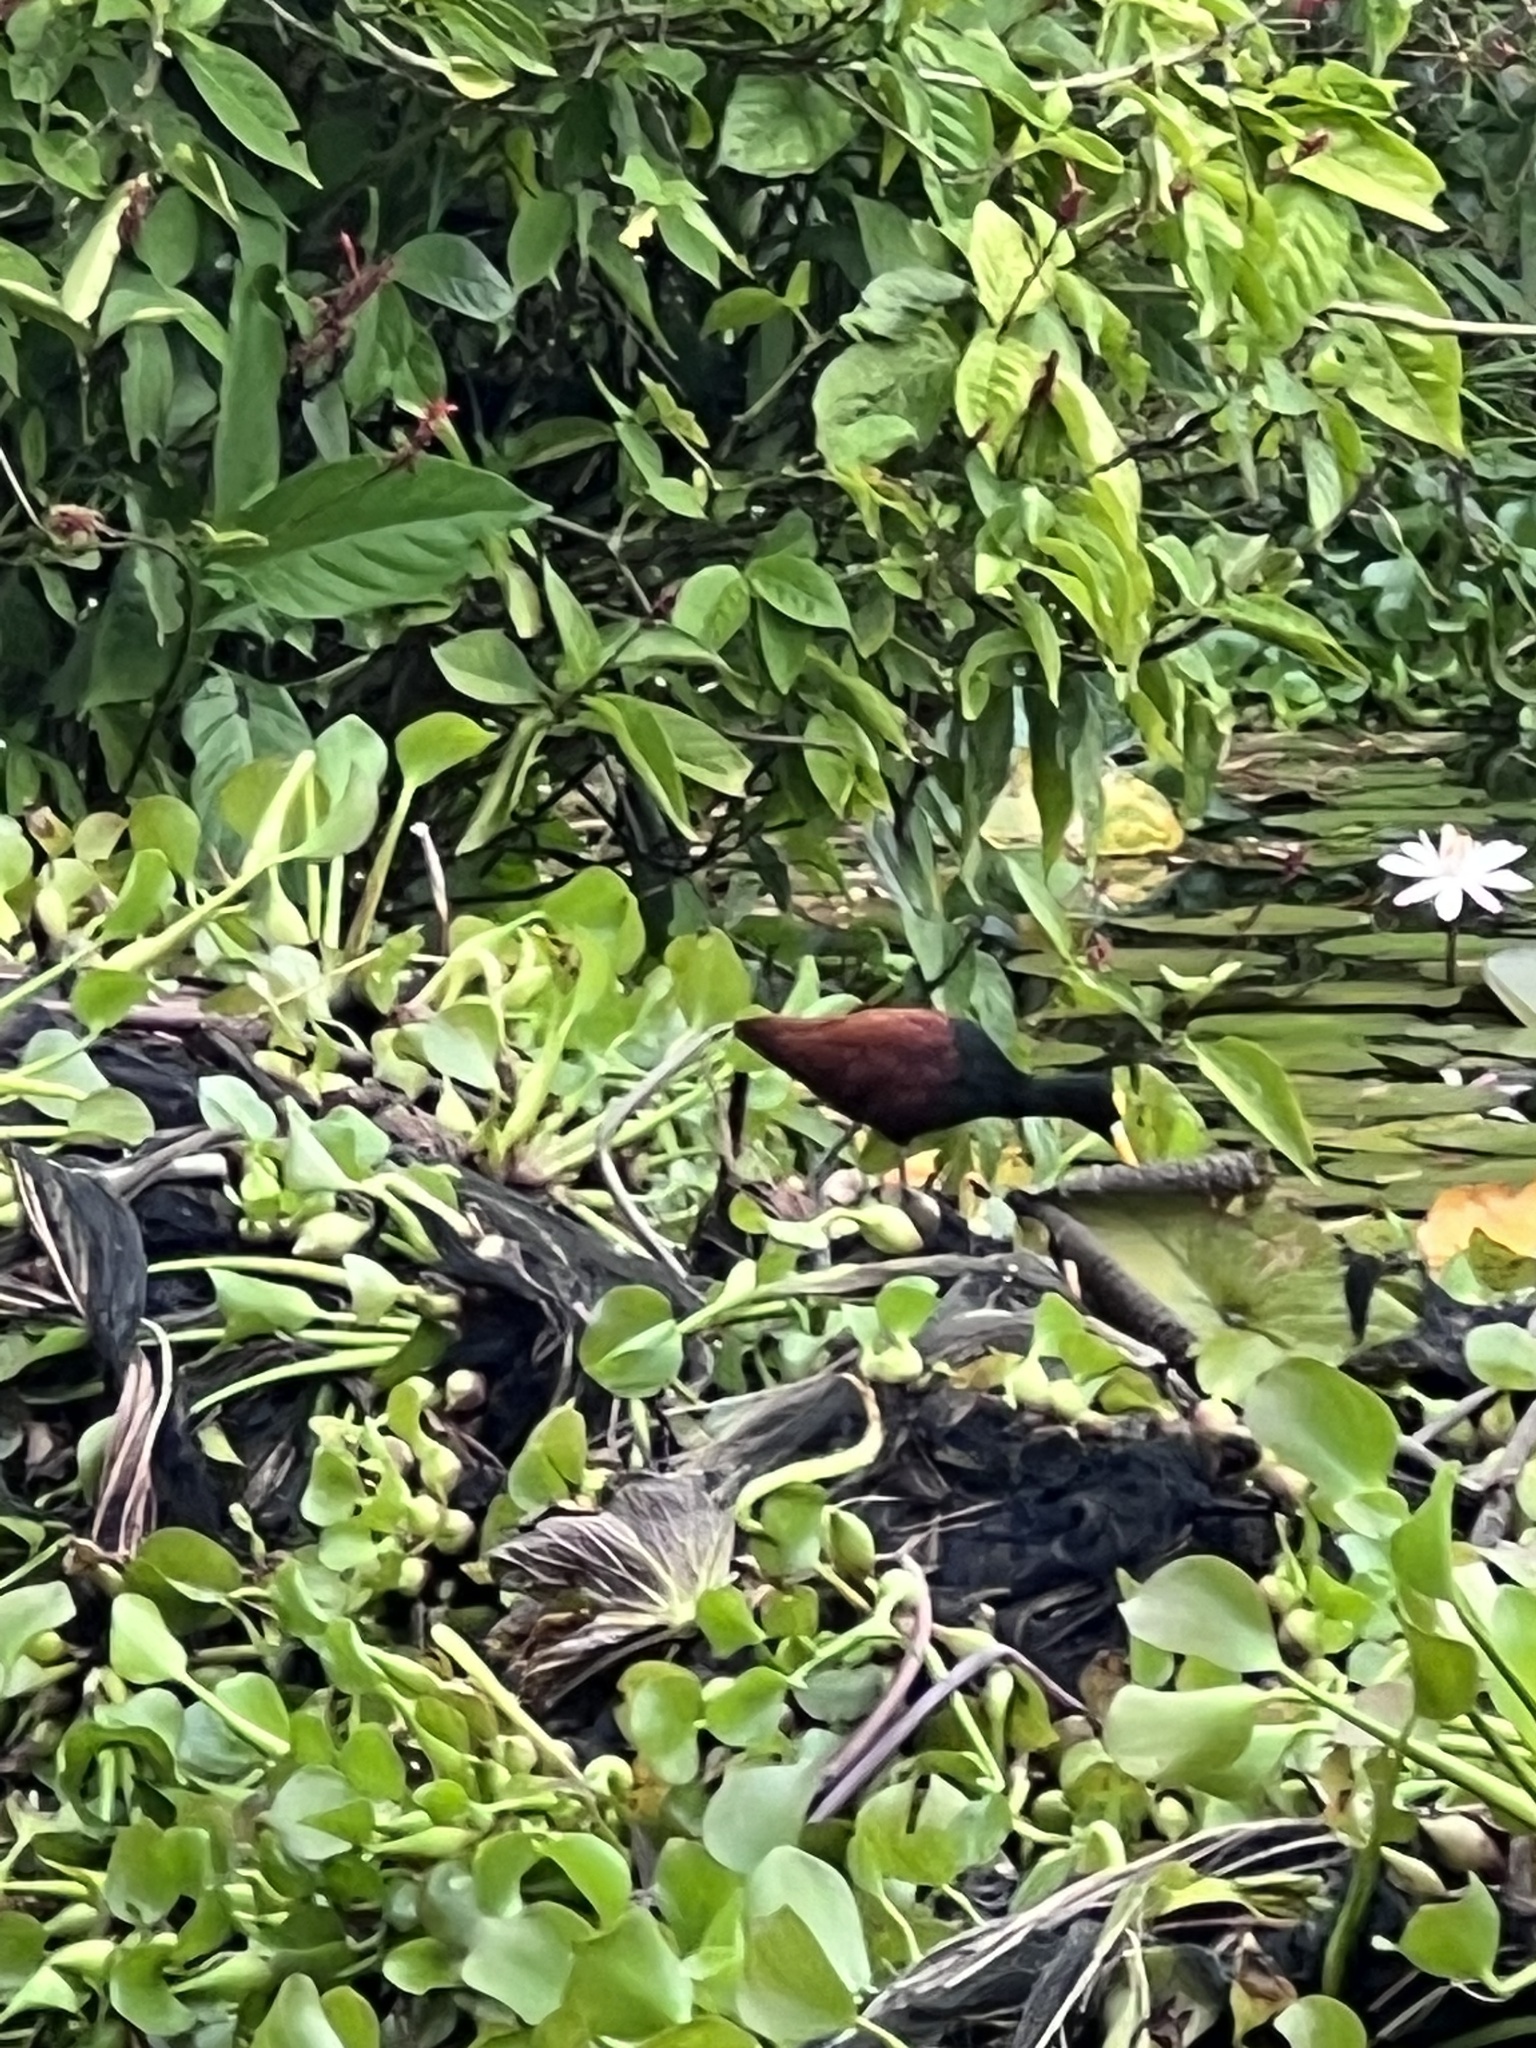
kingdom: Animalia
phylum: Chordata
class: Aves
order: Charadriiformes
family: Jacanidae
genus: Jacana
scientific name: Jacana spinosa
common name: Northern jacana
